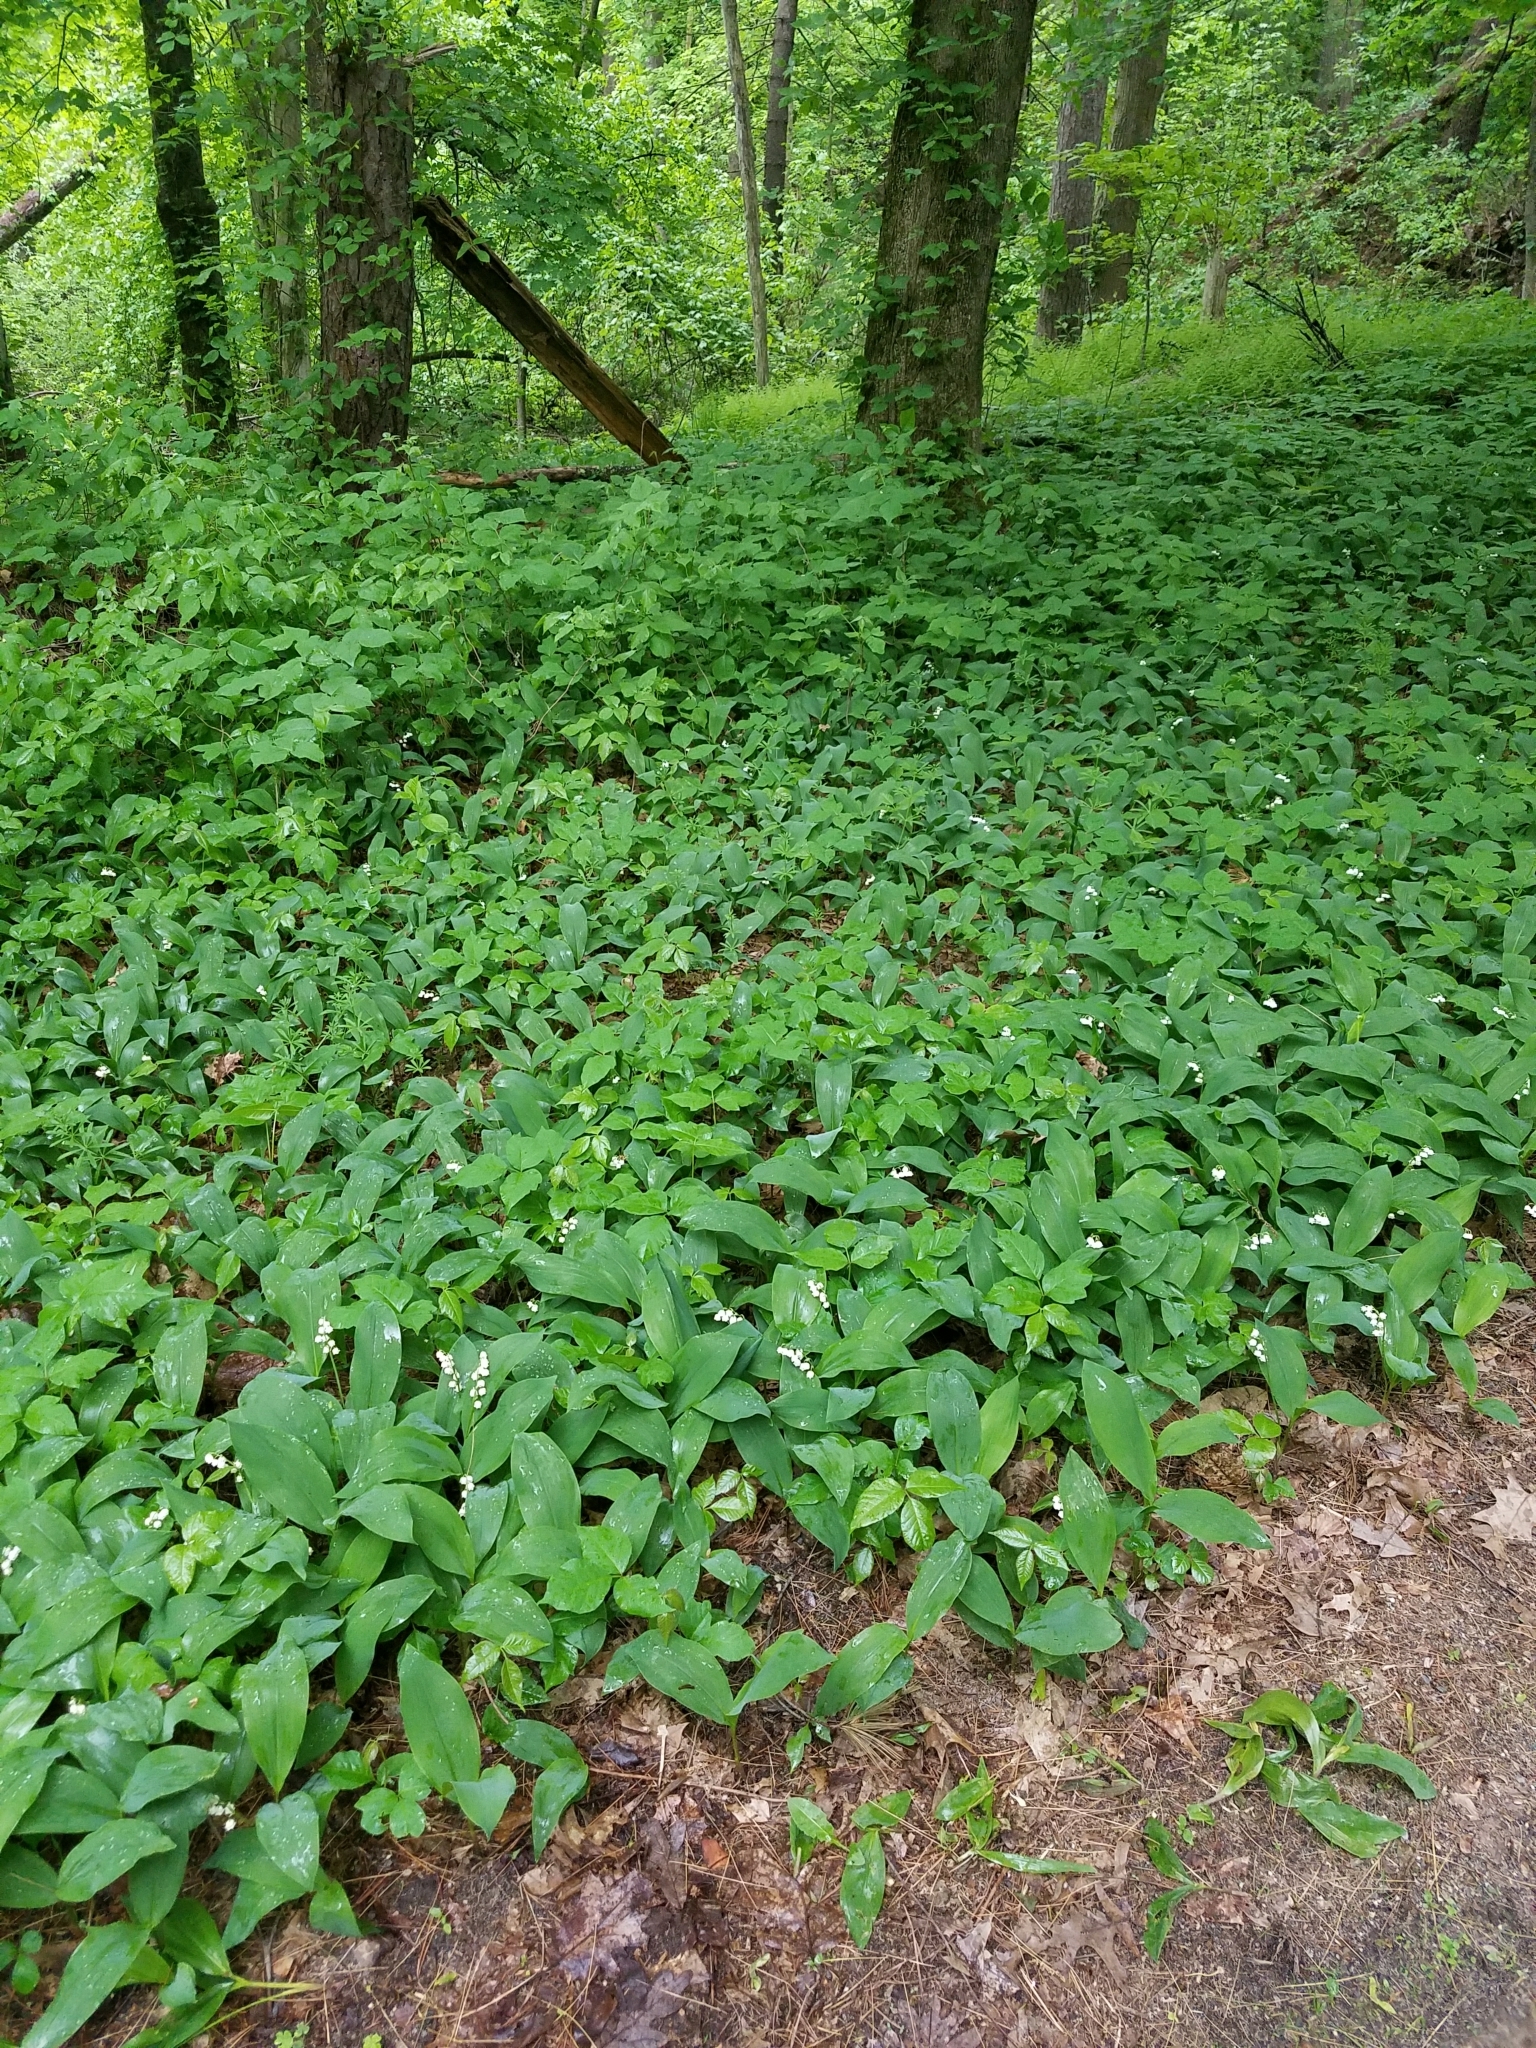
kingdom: Plantae
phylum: Tracheophyta
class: Liliopsida
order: Asparagales
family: Asparagaceae
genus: Convallaria
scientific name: Convallaria majalis
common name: Lily-of-the-valley
